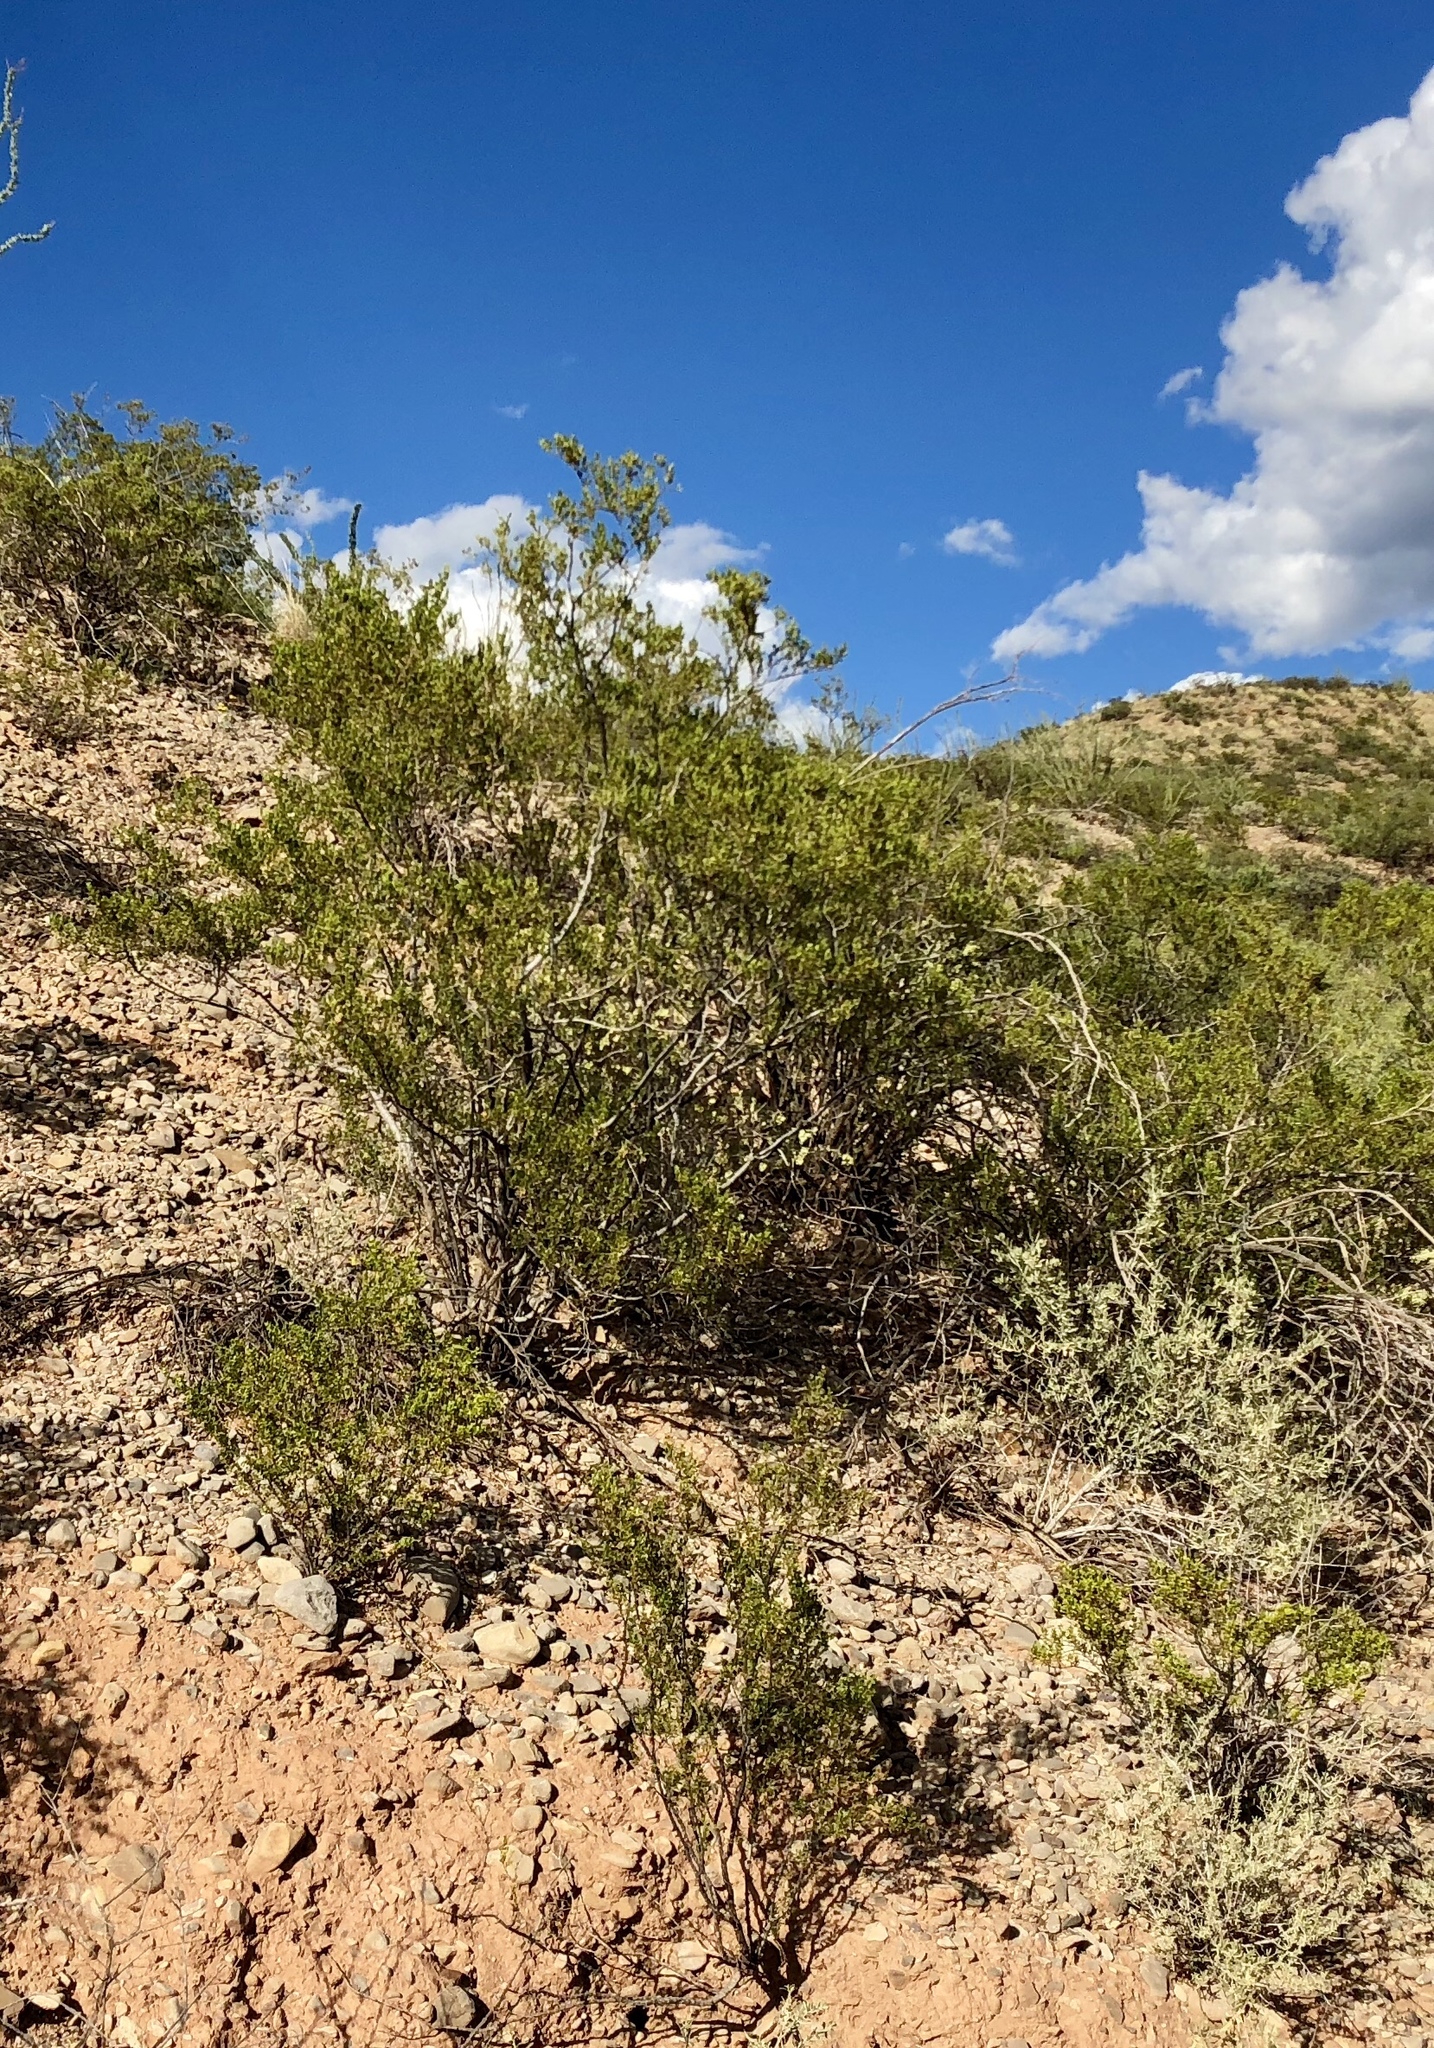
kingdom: Plantae
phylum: Tracheophyta
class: Magnoliopsida
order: Zygophyllales
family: Zygophyllaceae
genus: Larrea
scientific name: Larrea tridentata
